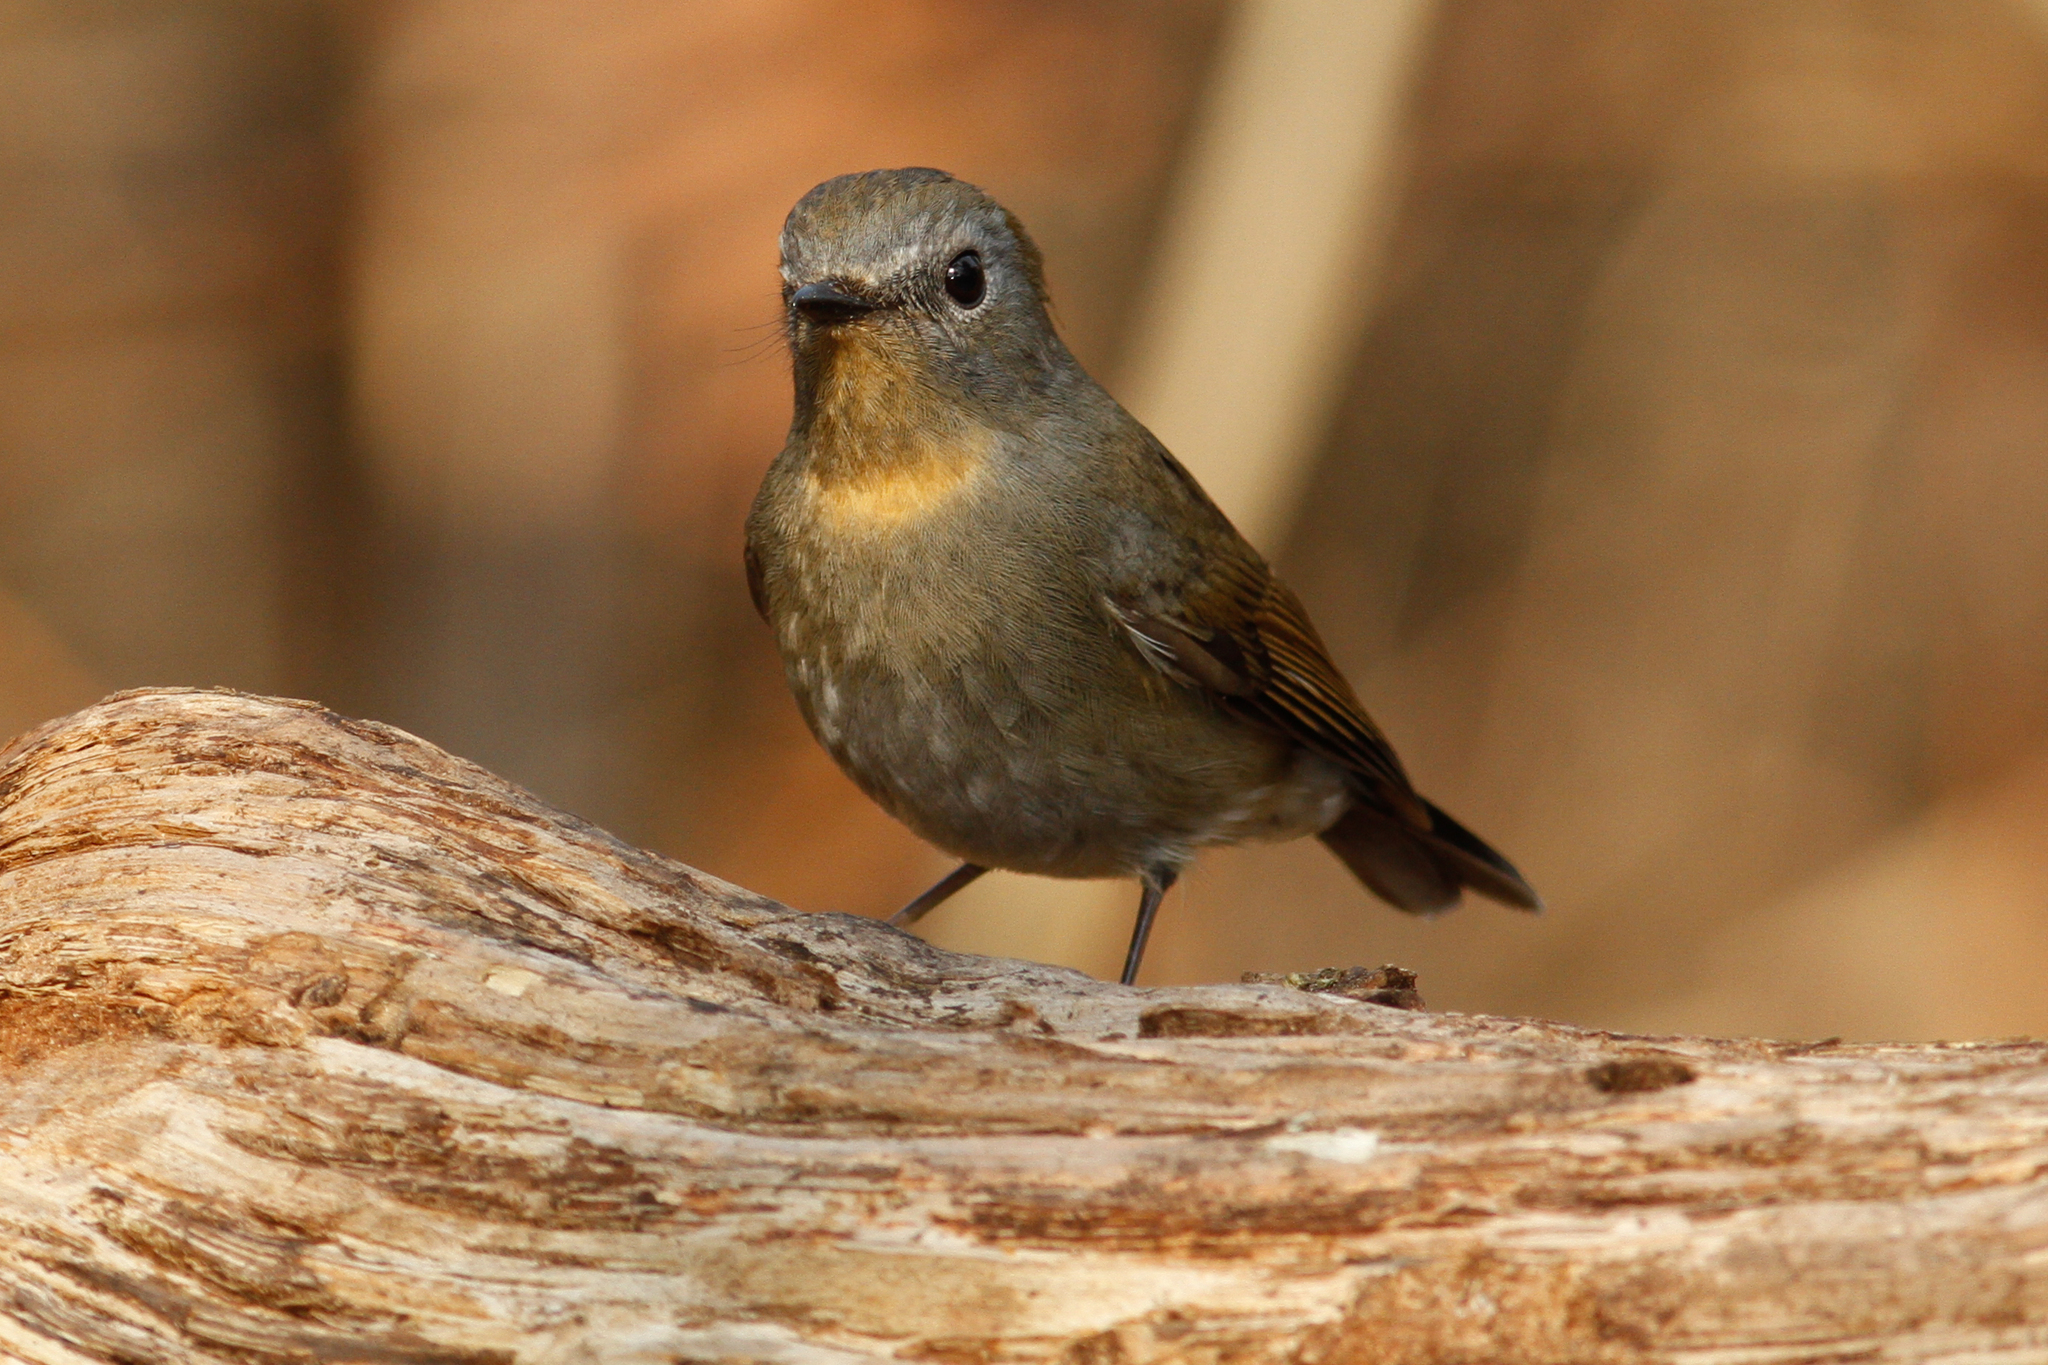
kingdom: Animalia
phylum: Chordata
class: Aves
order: Passeriformes
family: Muscicapidae
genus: Ficedula
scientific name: Ficedula tricolor
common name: Slaty-blue flycatcher
